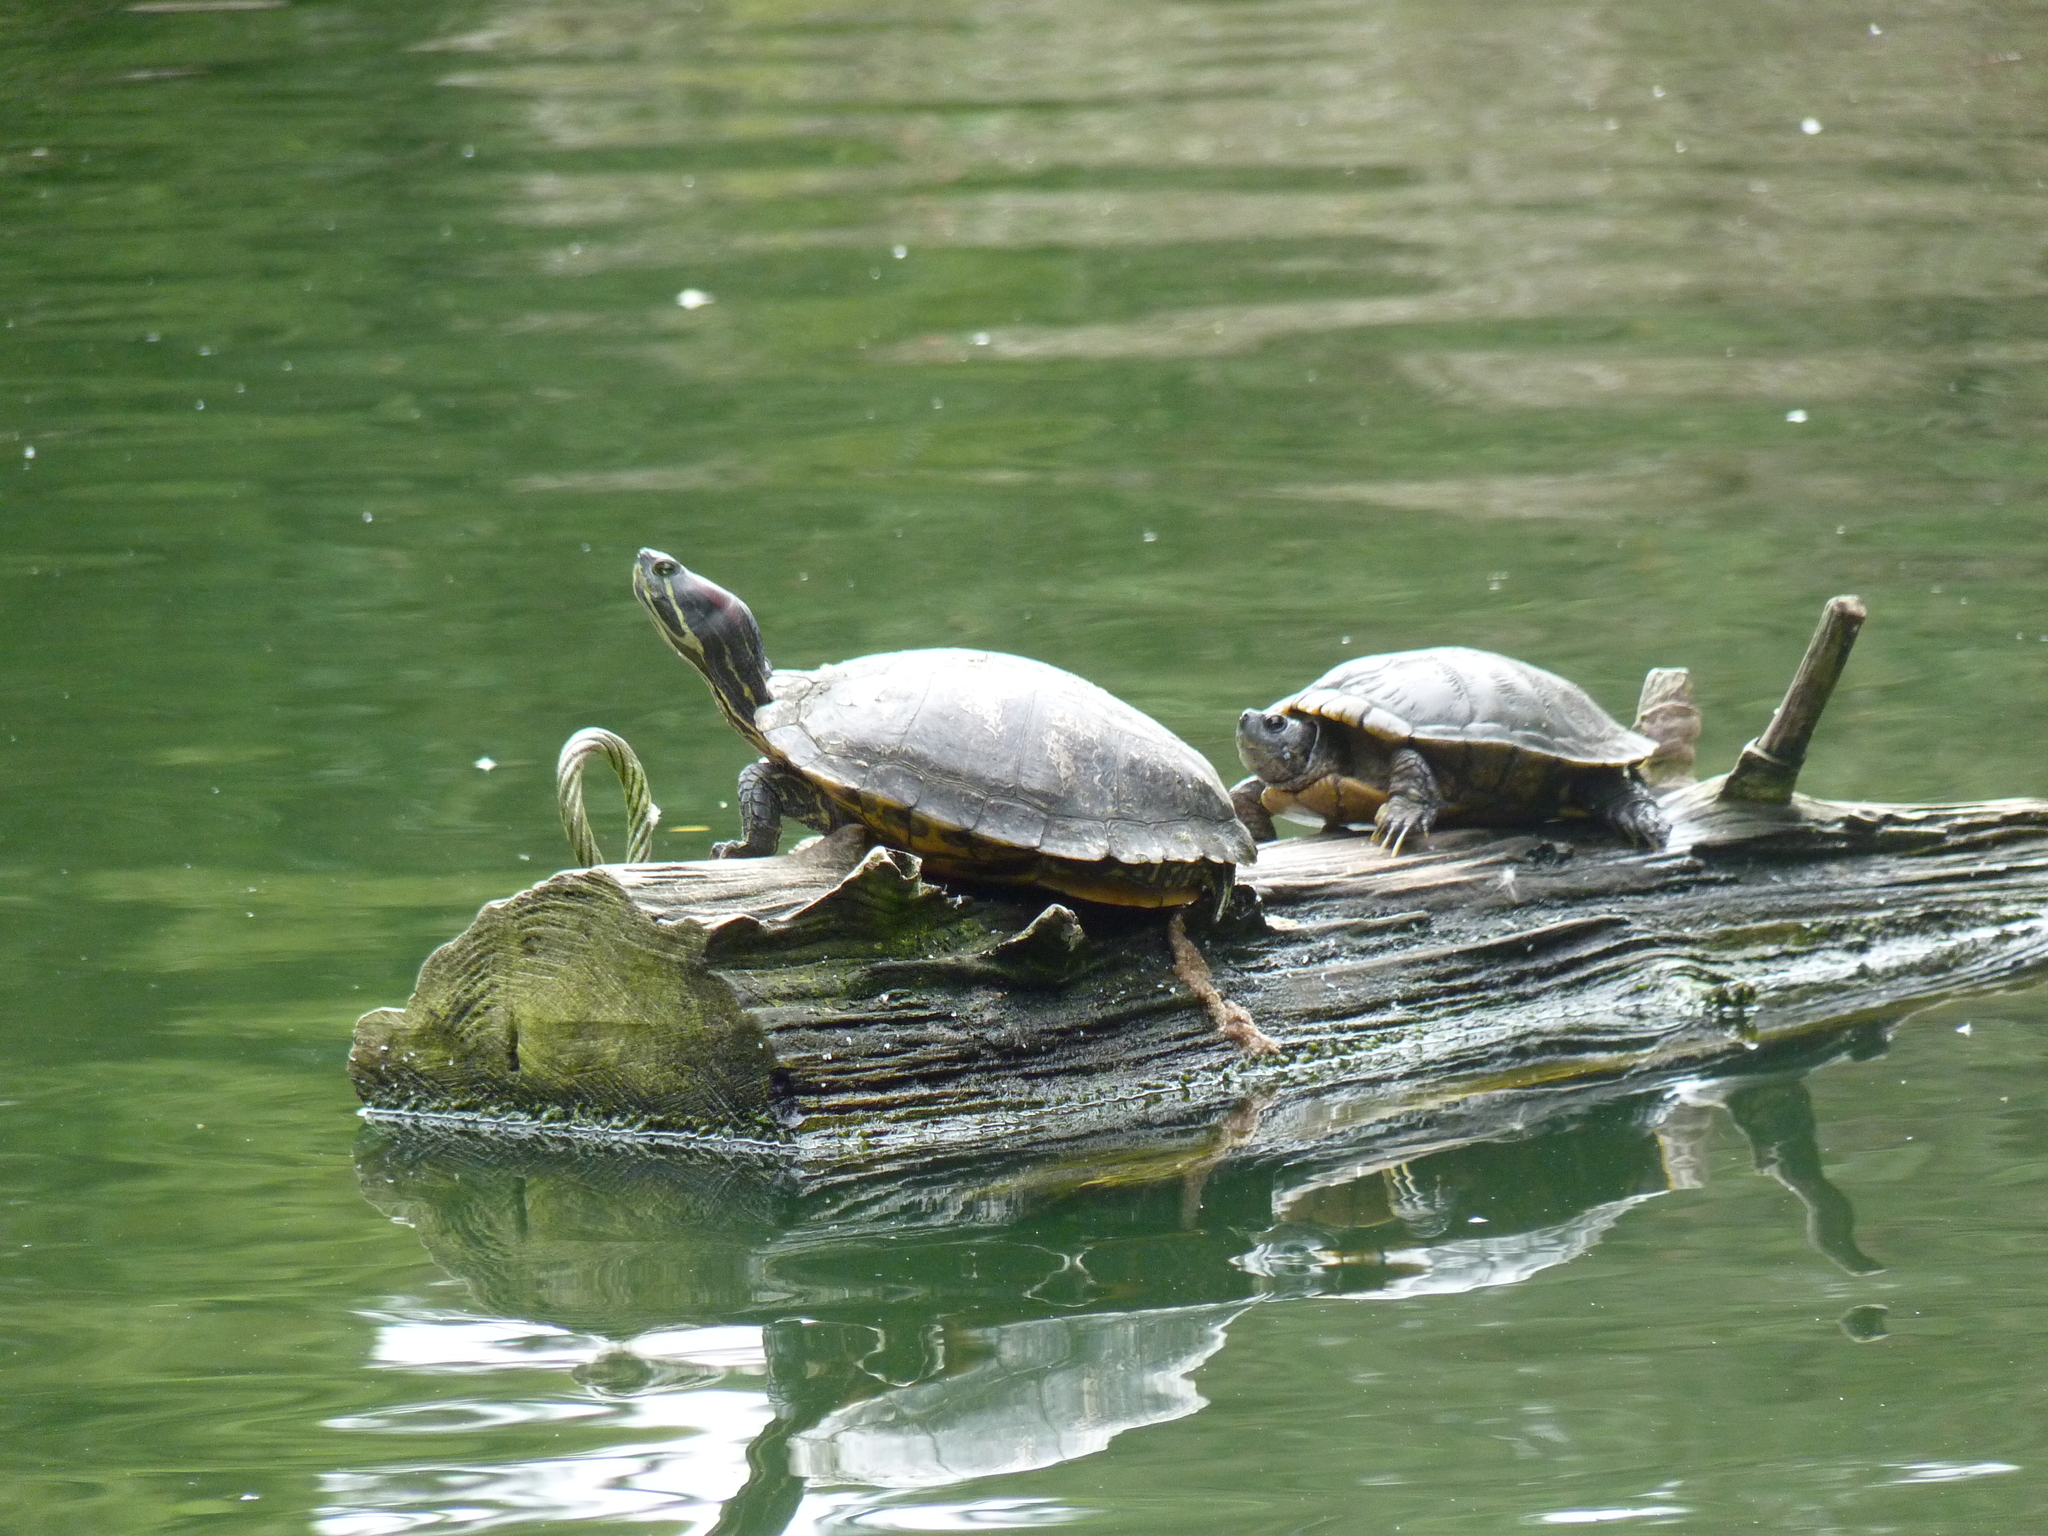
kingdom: Animalia
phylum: Chordata
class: Testudines
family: Emydidae
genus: Trachemys
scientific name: Trachemys scripta
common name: Slider
